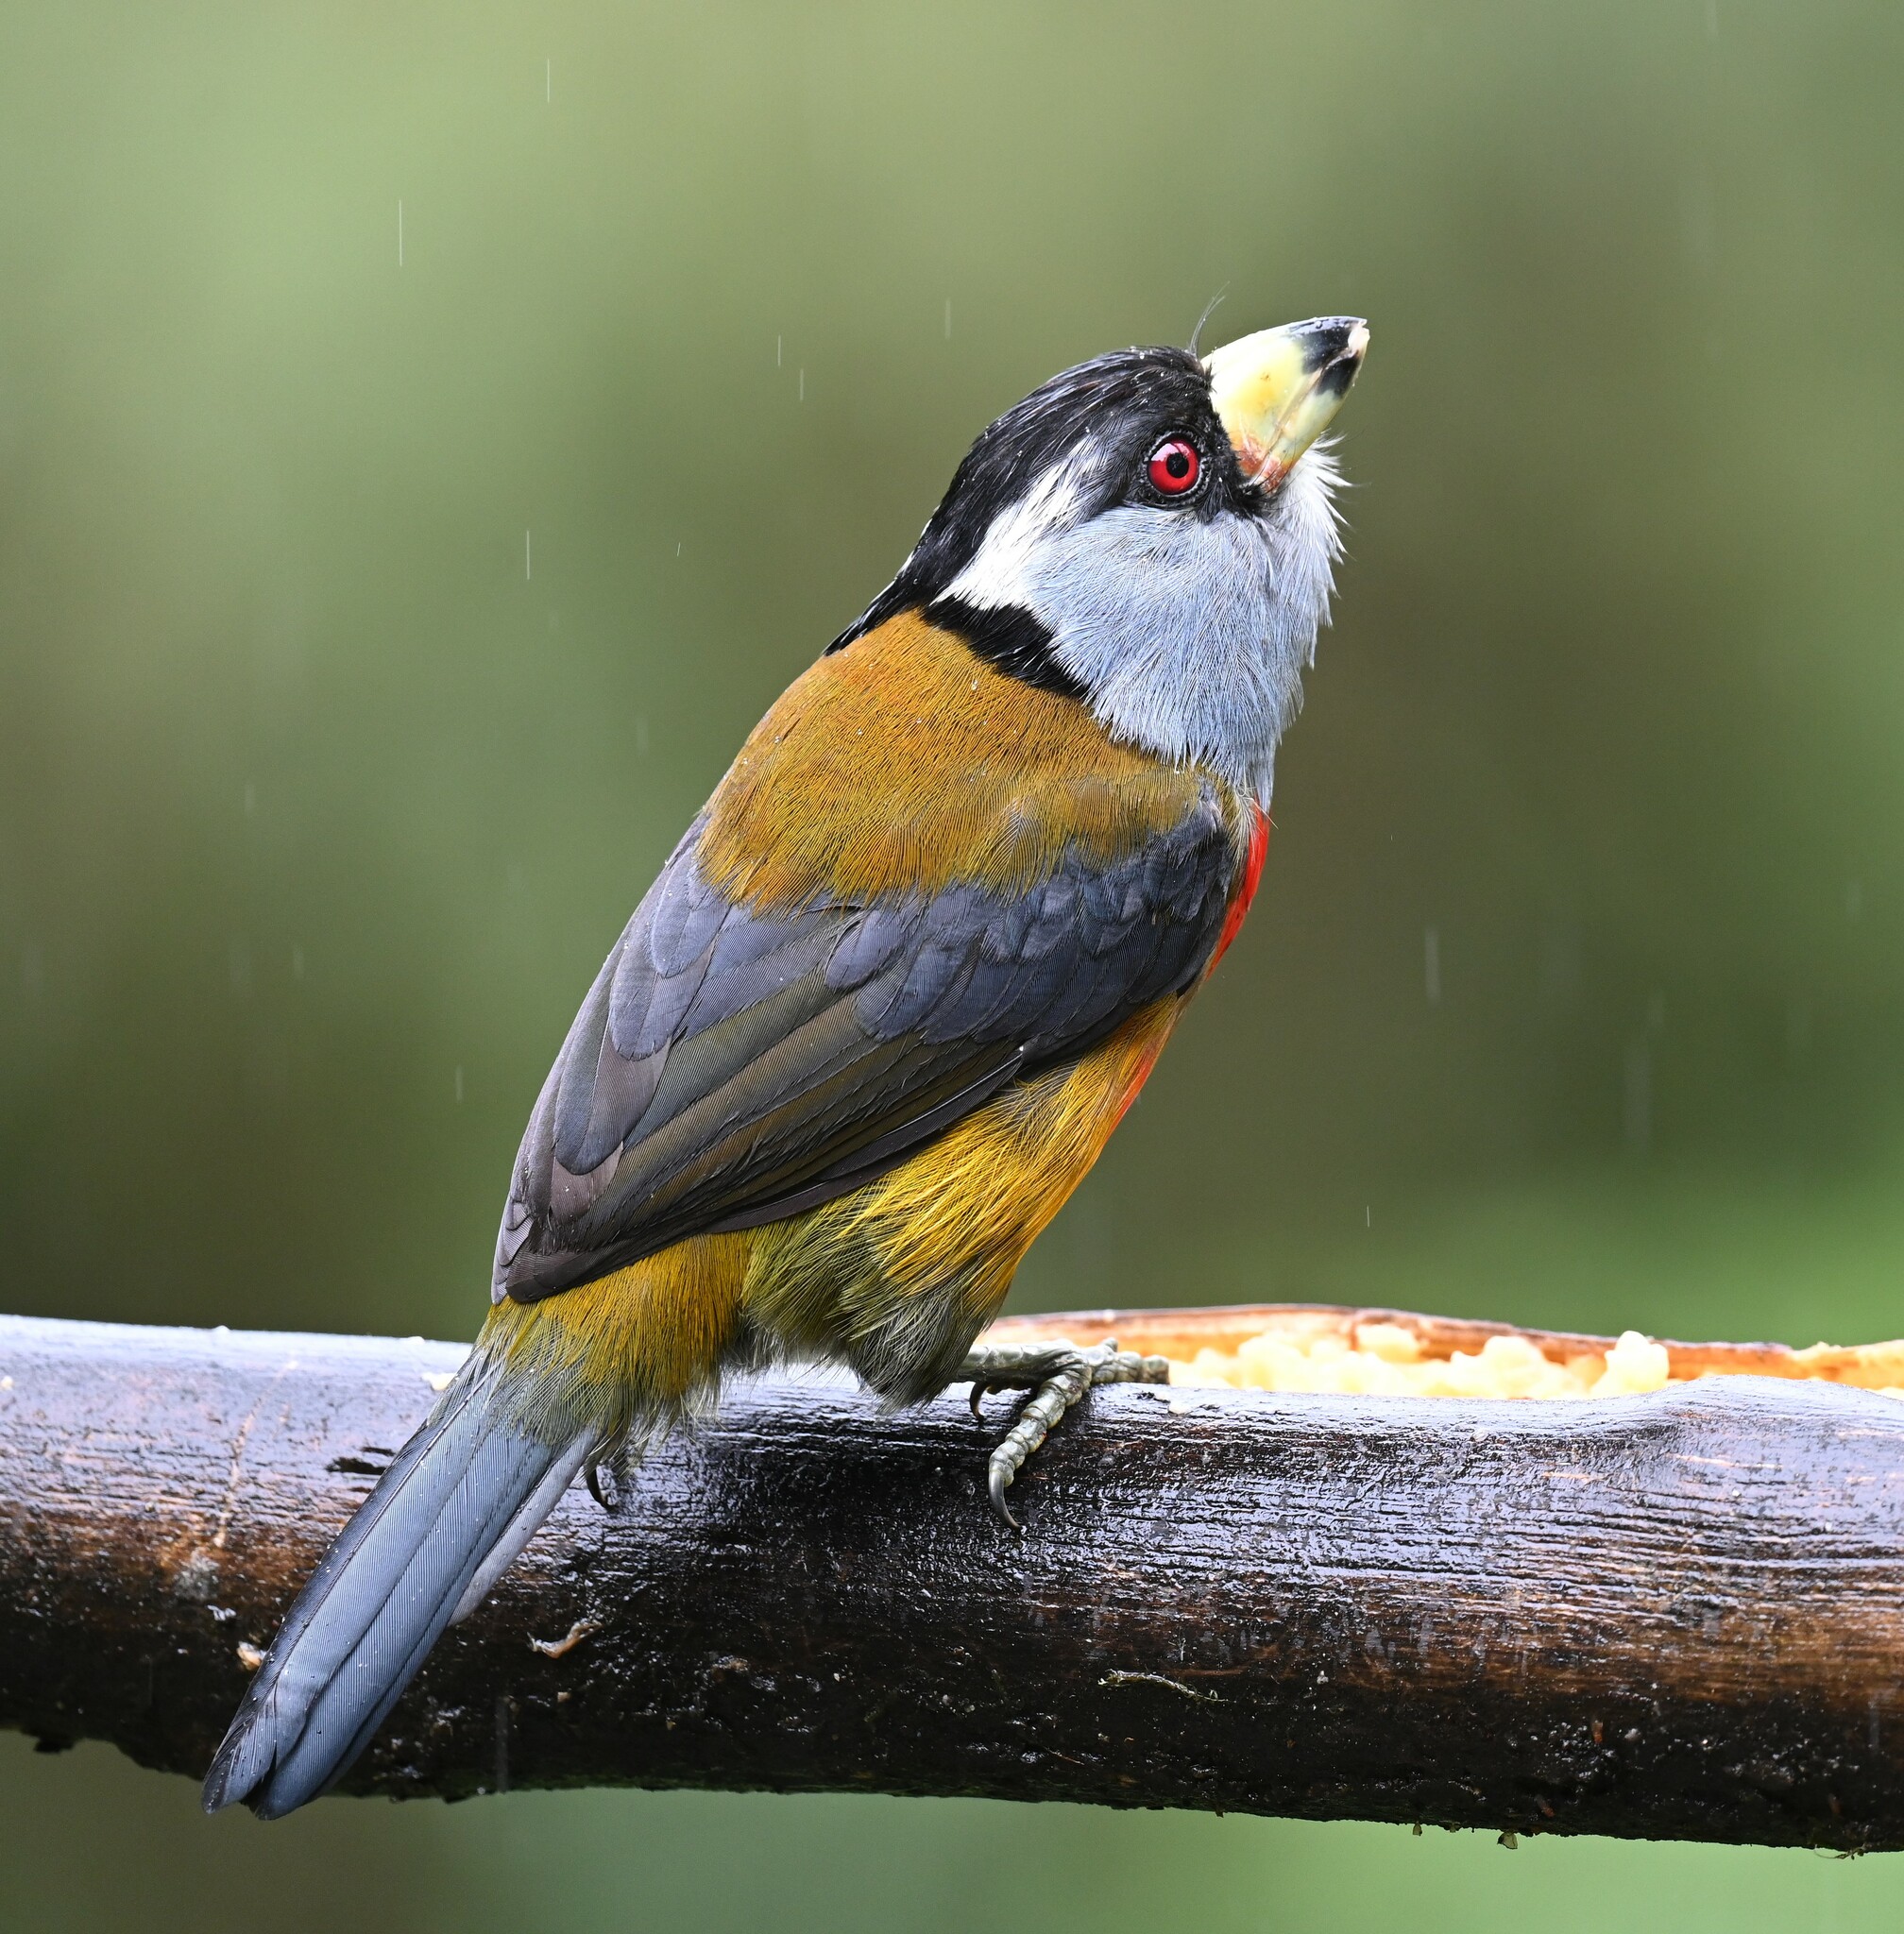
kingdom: Animalia
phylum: Chordata
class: Aves
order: Piciformes
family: Semnornithidae
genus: Semnornis
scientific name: Semnornis ramphastinus
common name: Toucan barbet
